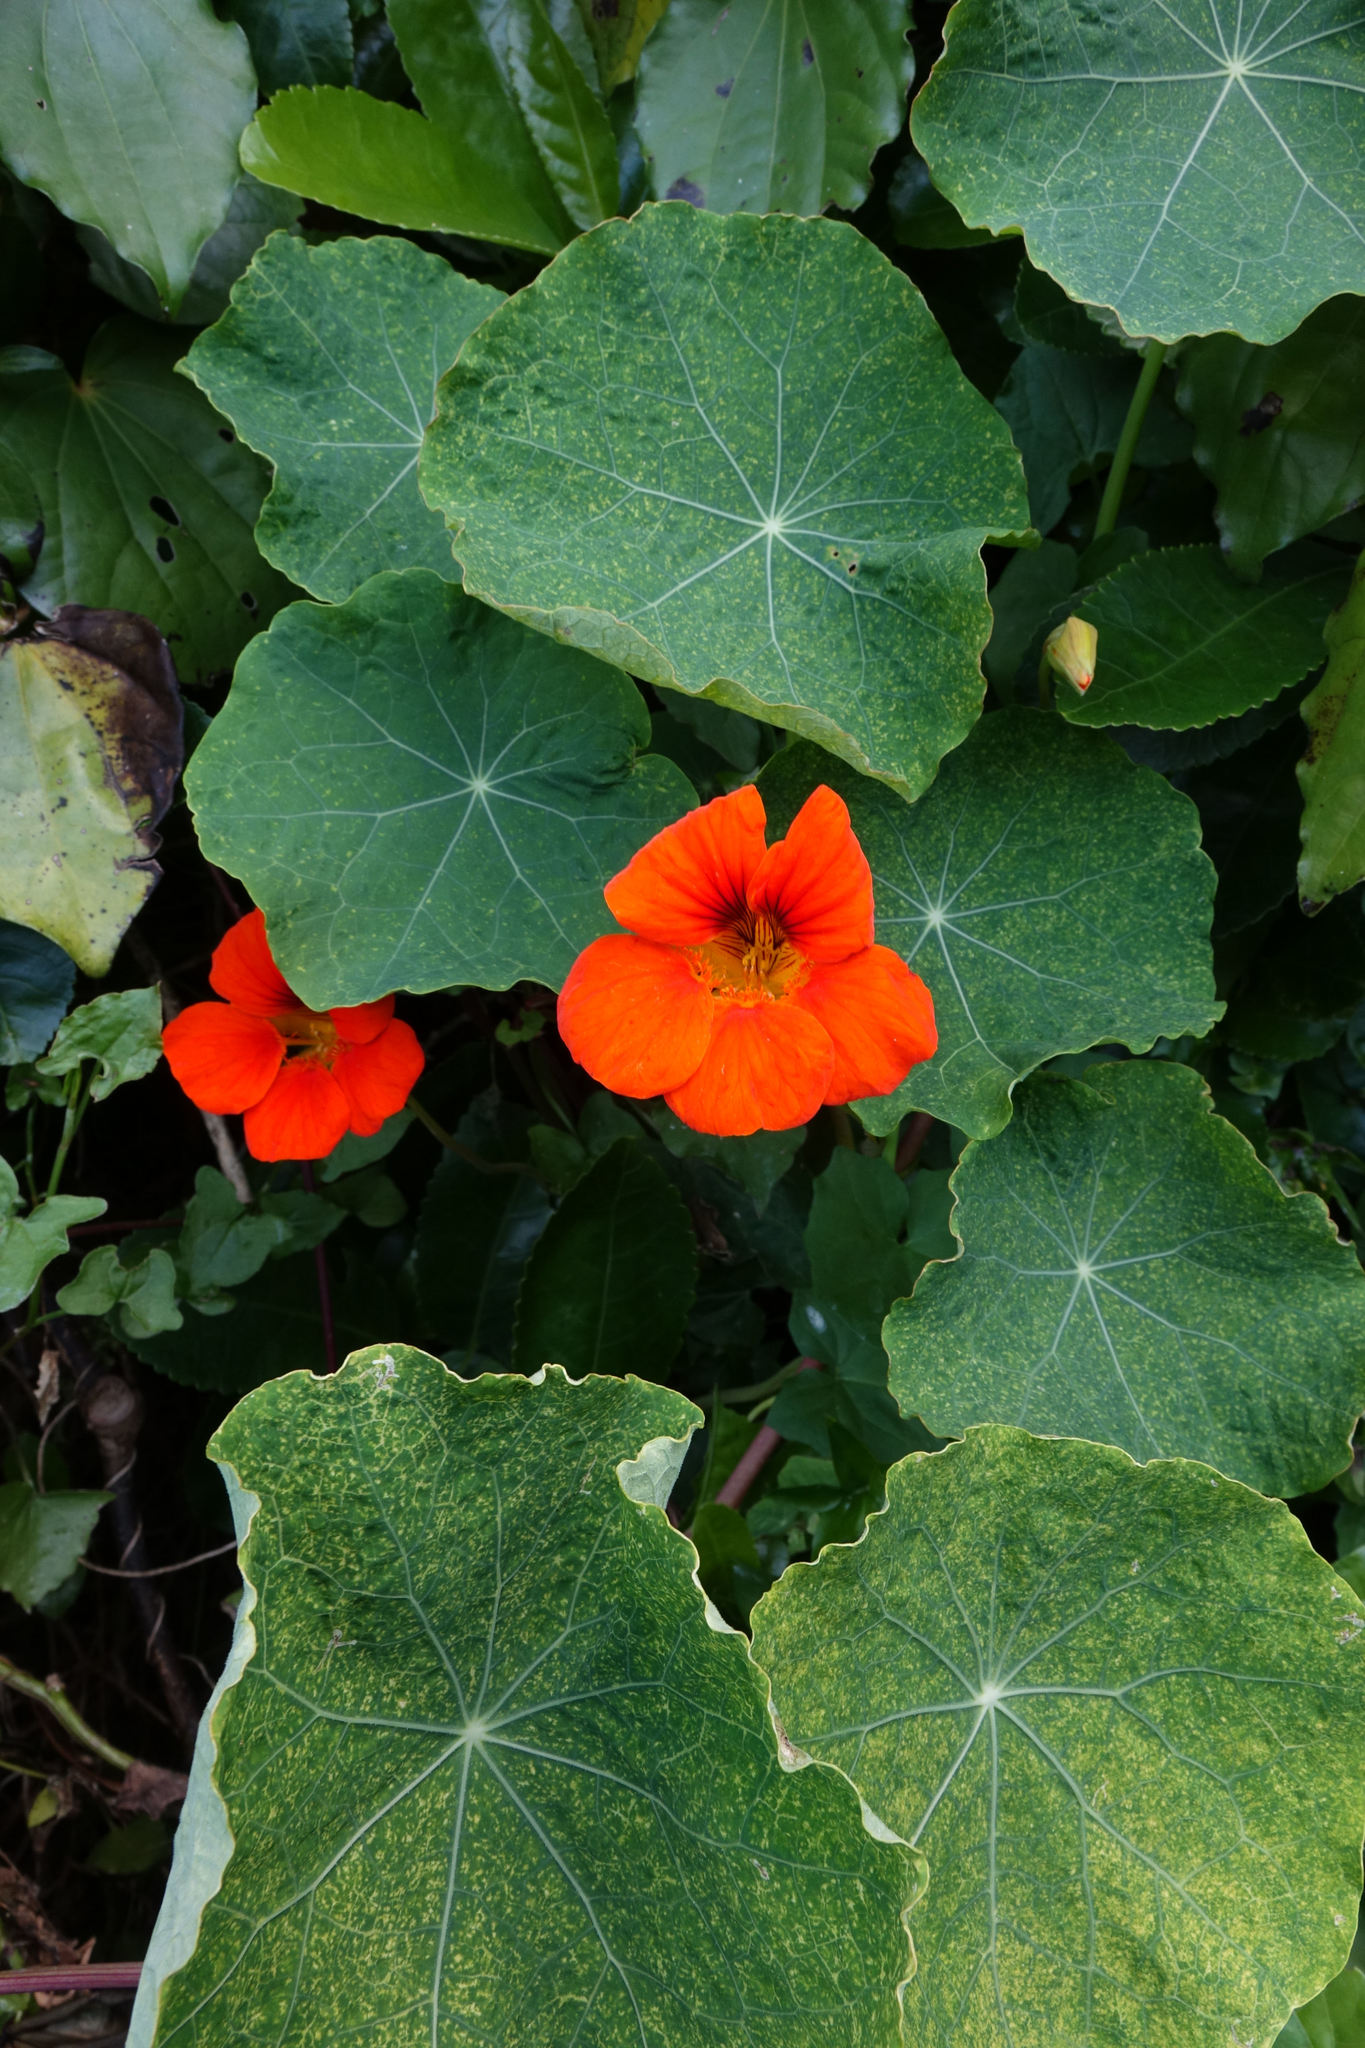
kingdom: Plantae
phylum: Tracheophyta
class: Magnoliopsida
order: Brassicales
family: Tropaeolaceae
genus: Tropaeolum
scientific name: Tropaeolum majus
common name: Nasturtium
